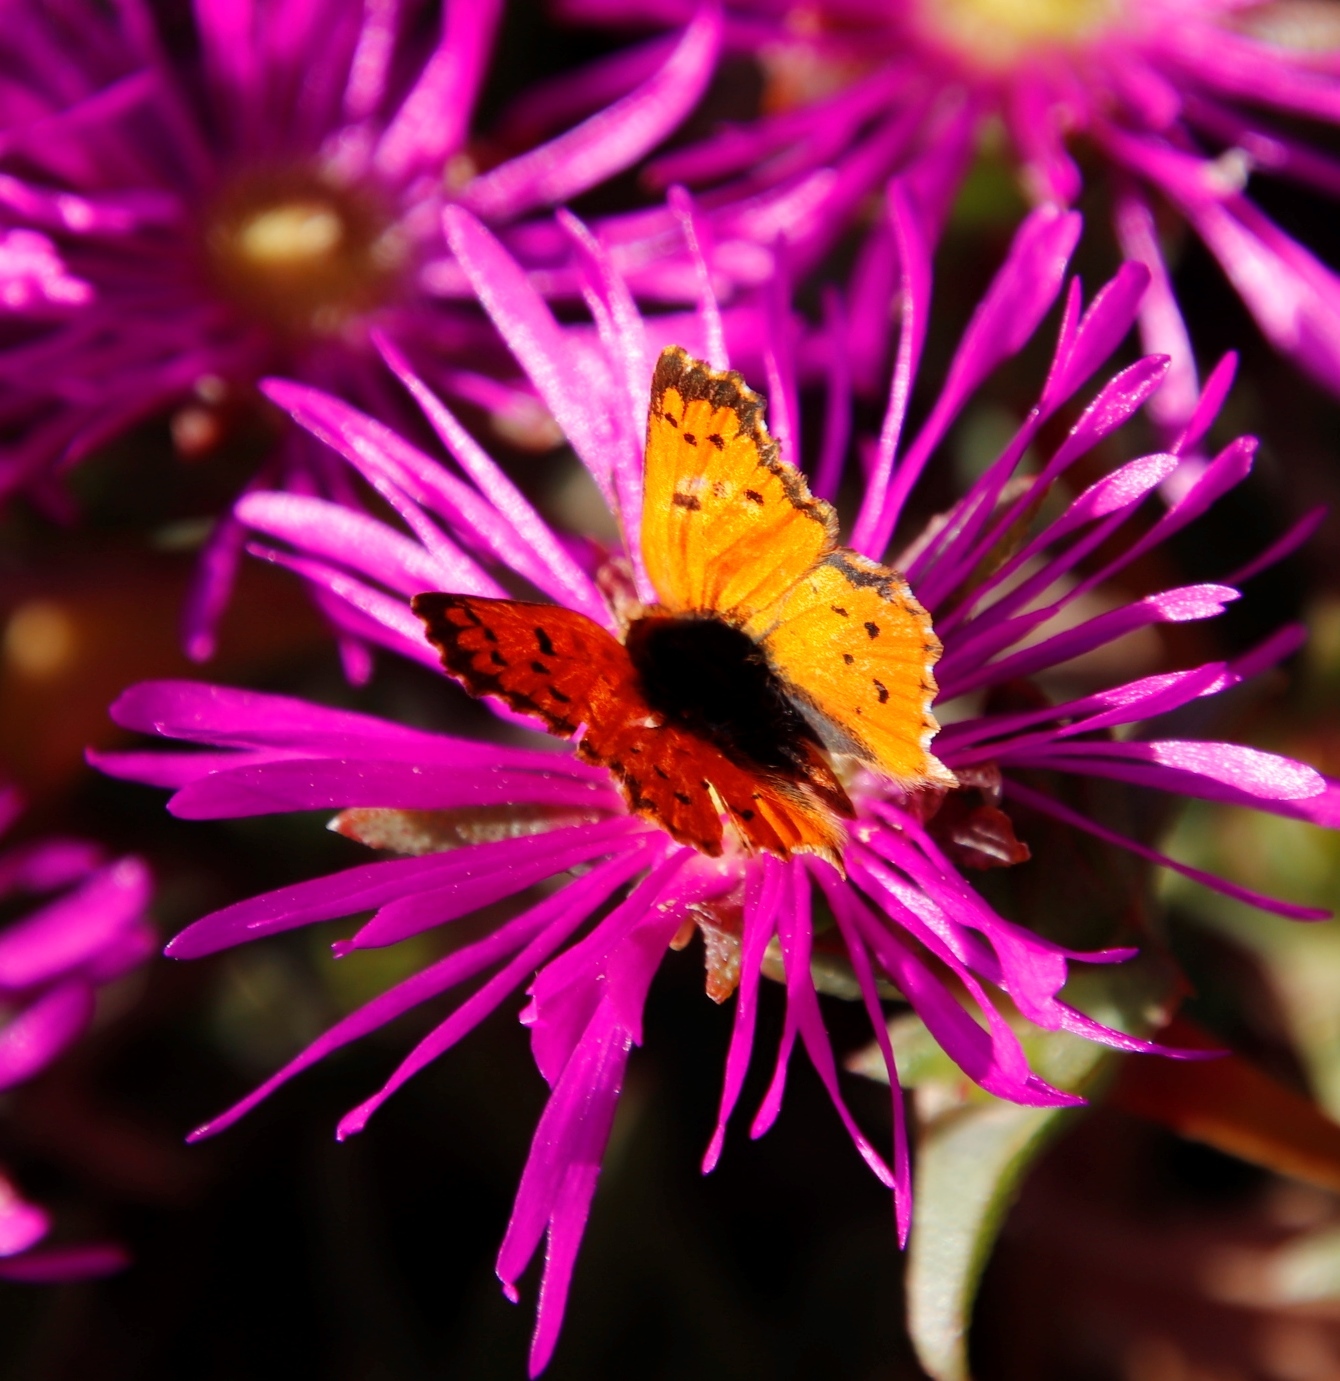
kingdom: Animalia
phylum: Arthropoda
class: Insecta
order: Lepidoptera
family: Lycaenidae
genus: Chrysoritis
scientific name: Chrysoritis
